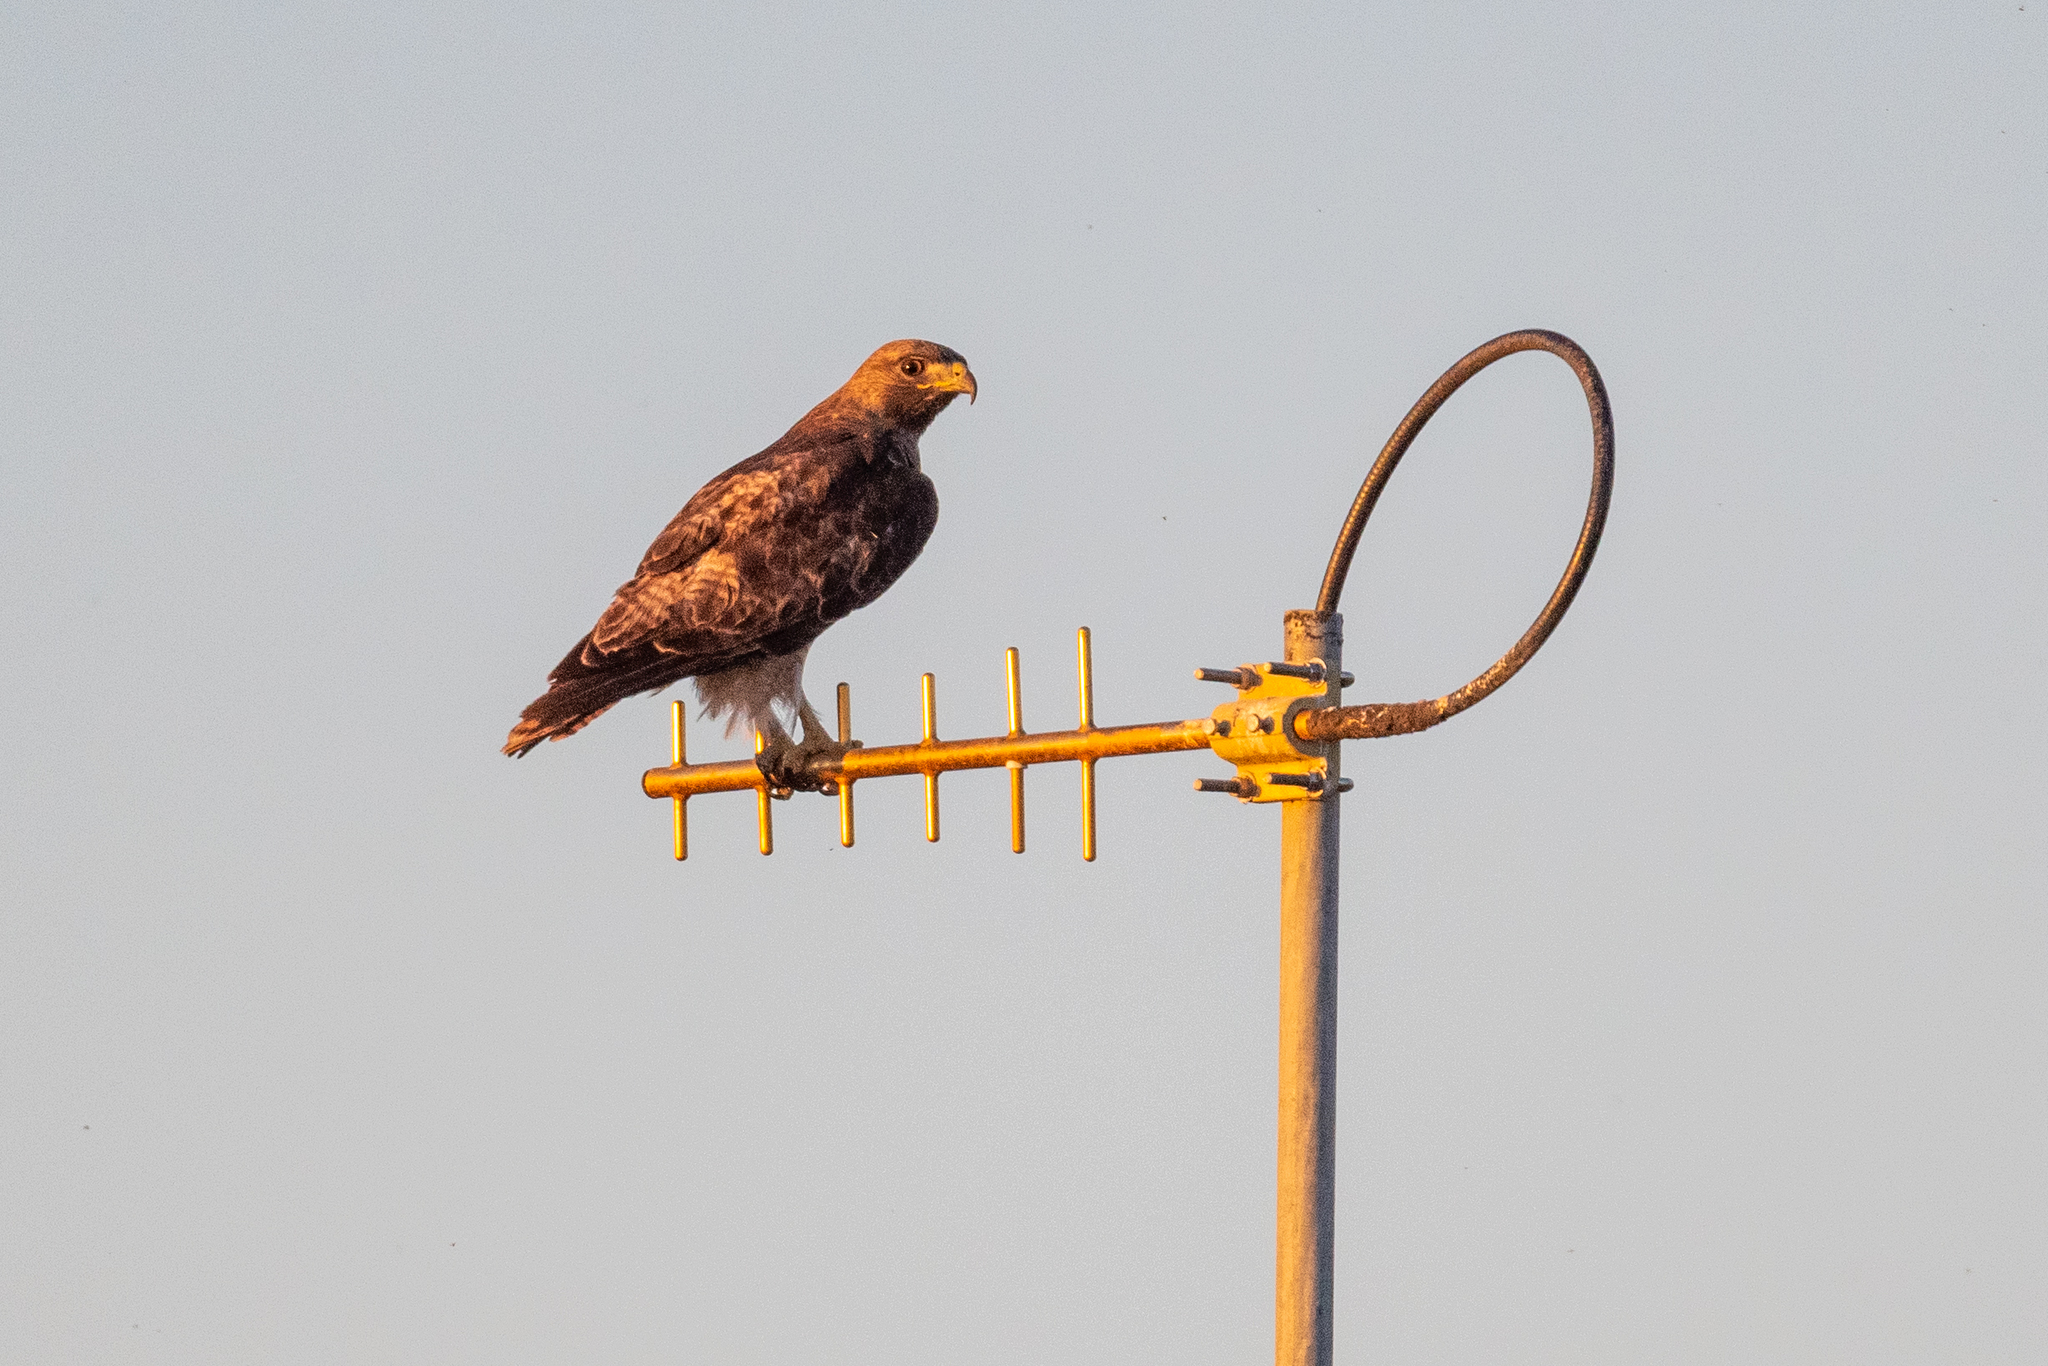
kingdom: Animalia
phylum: Chordata
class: Aves
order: Accipitriformes
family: Accipitridae
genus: Buteo
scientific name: Buteo jamaicensis
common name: Red-tailed hawk
